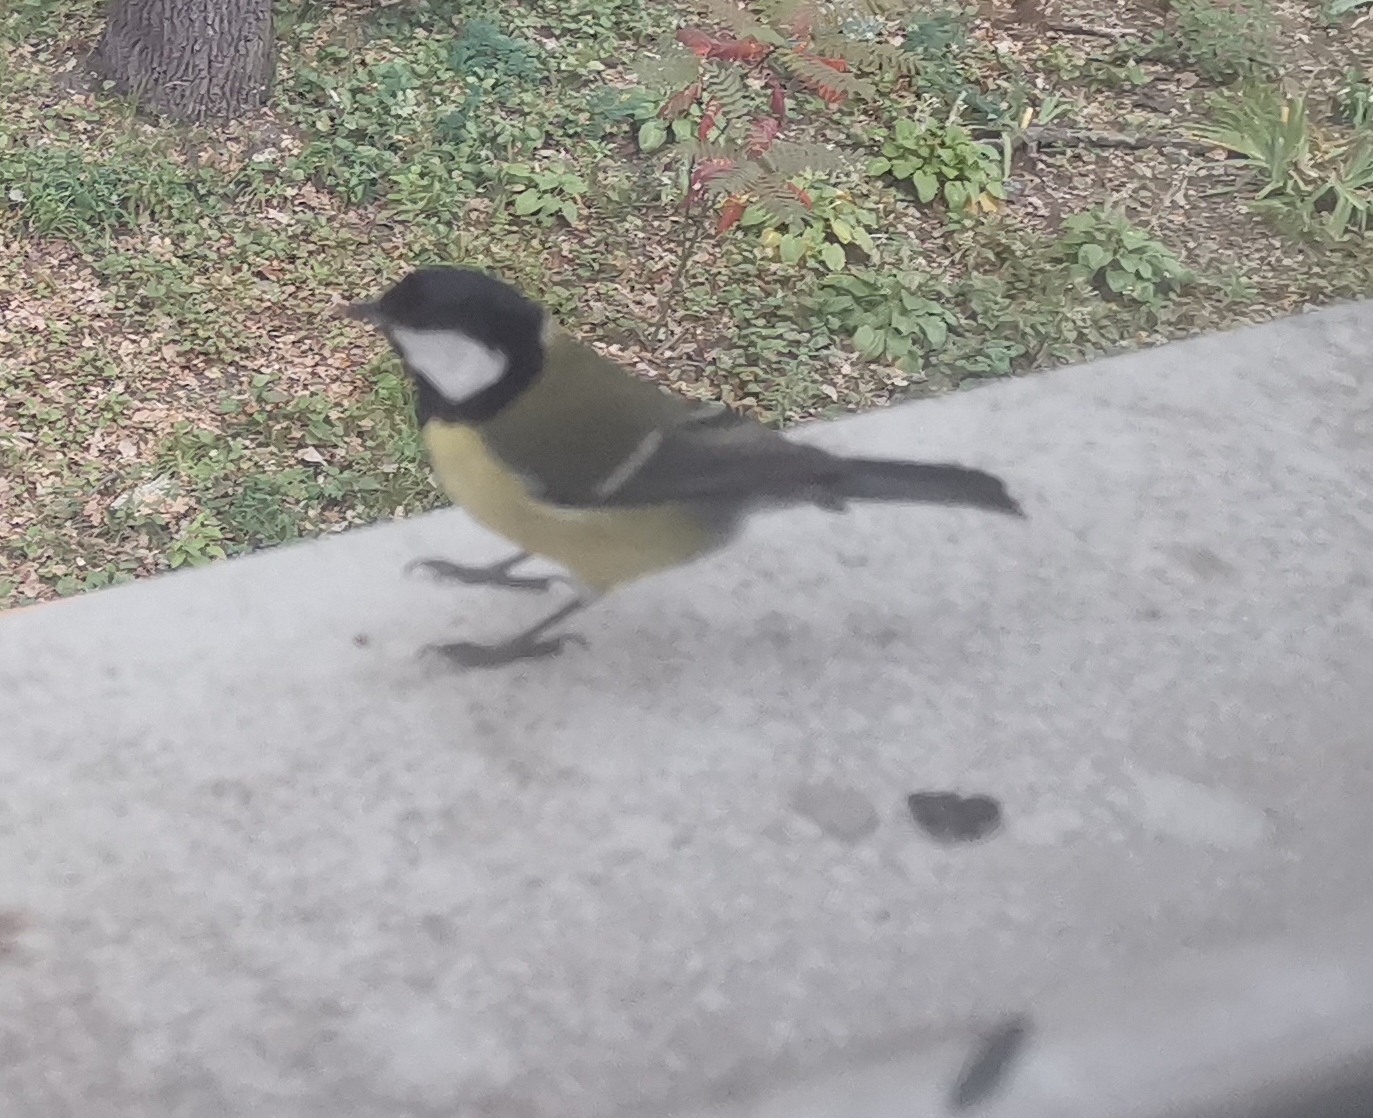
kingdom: Animalia
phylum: Chordata
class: Aves
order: Passeriformes
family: Paridae
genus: Parus
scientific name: Parus major
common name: Great tit
